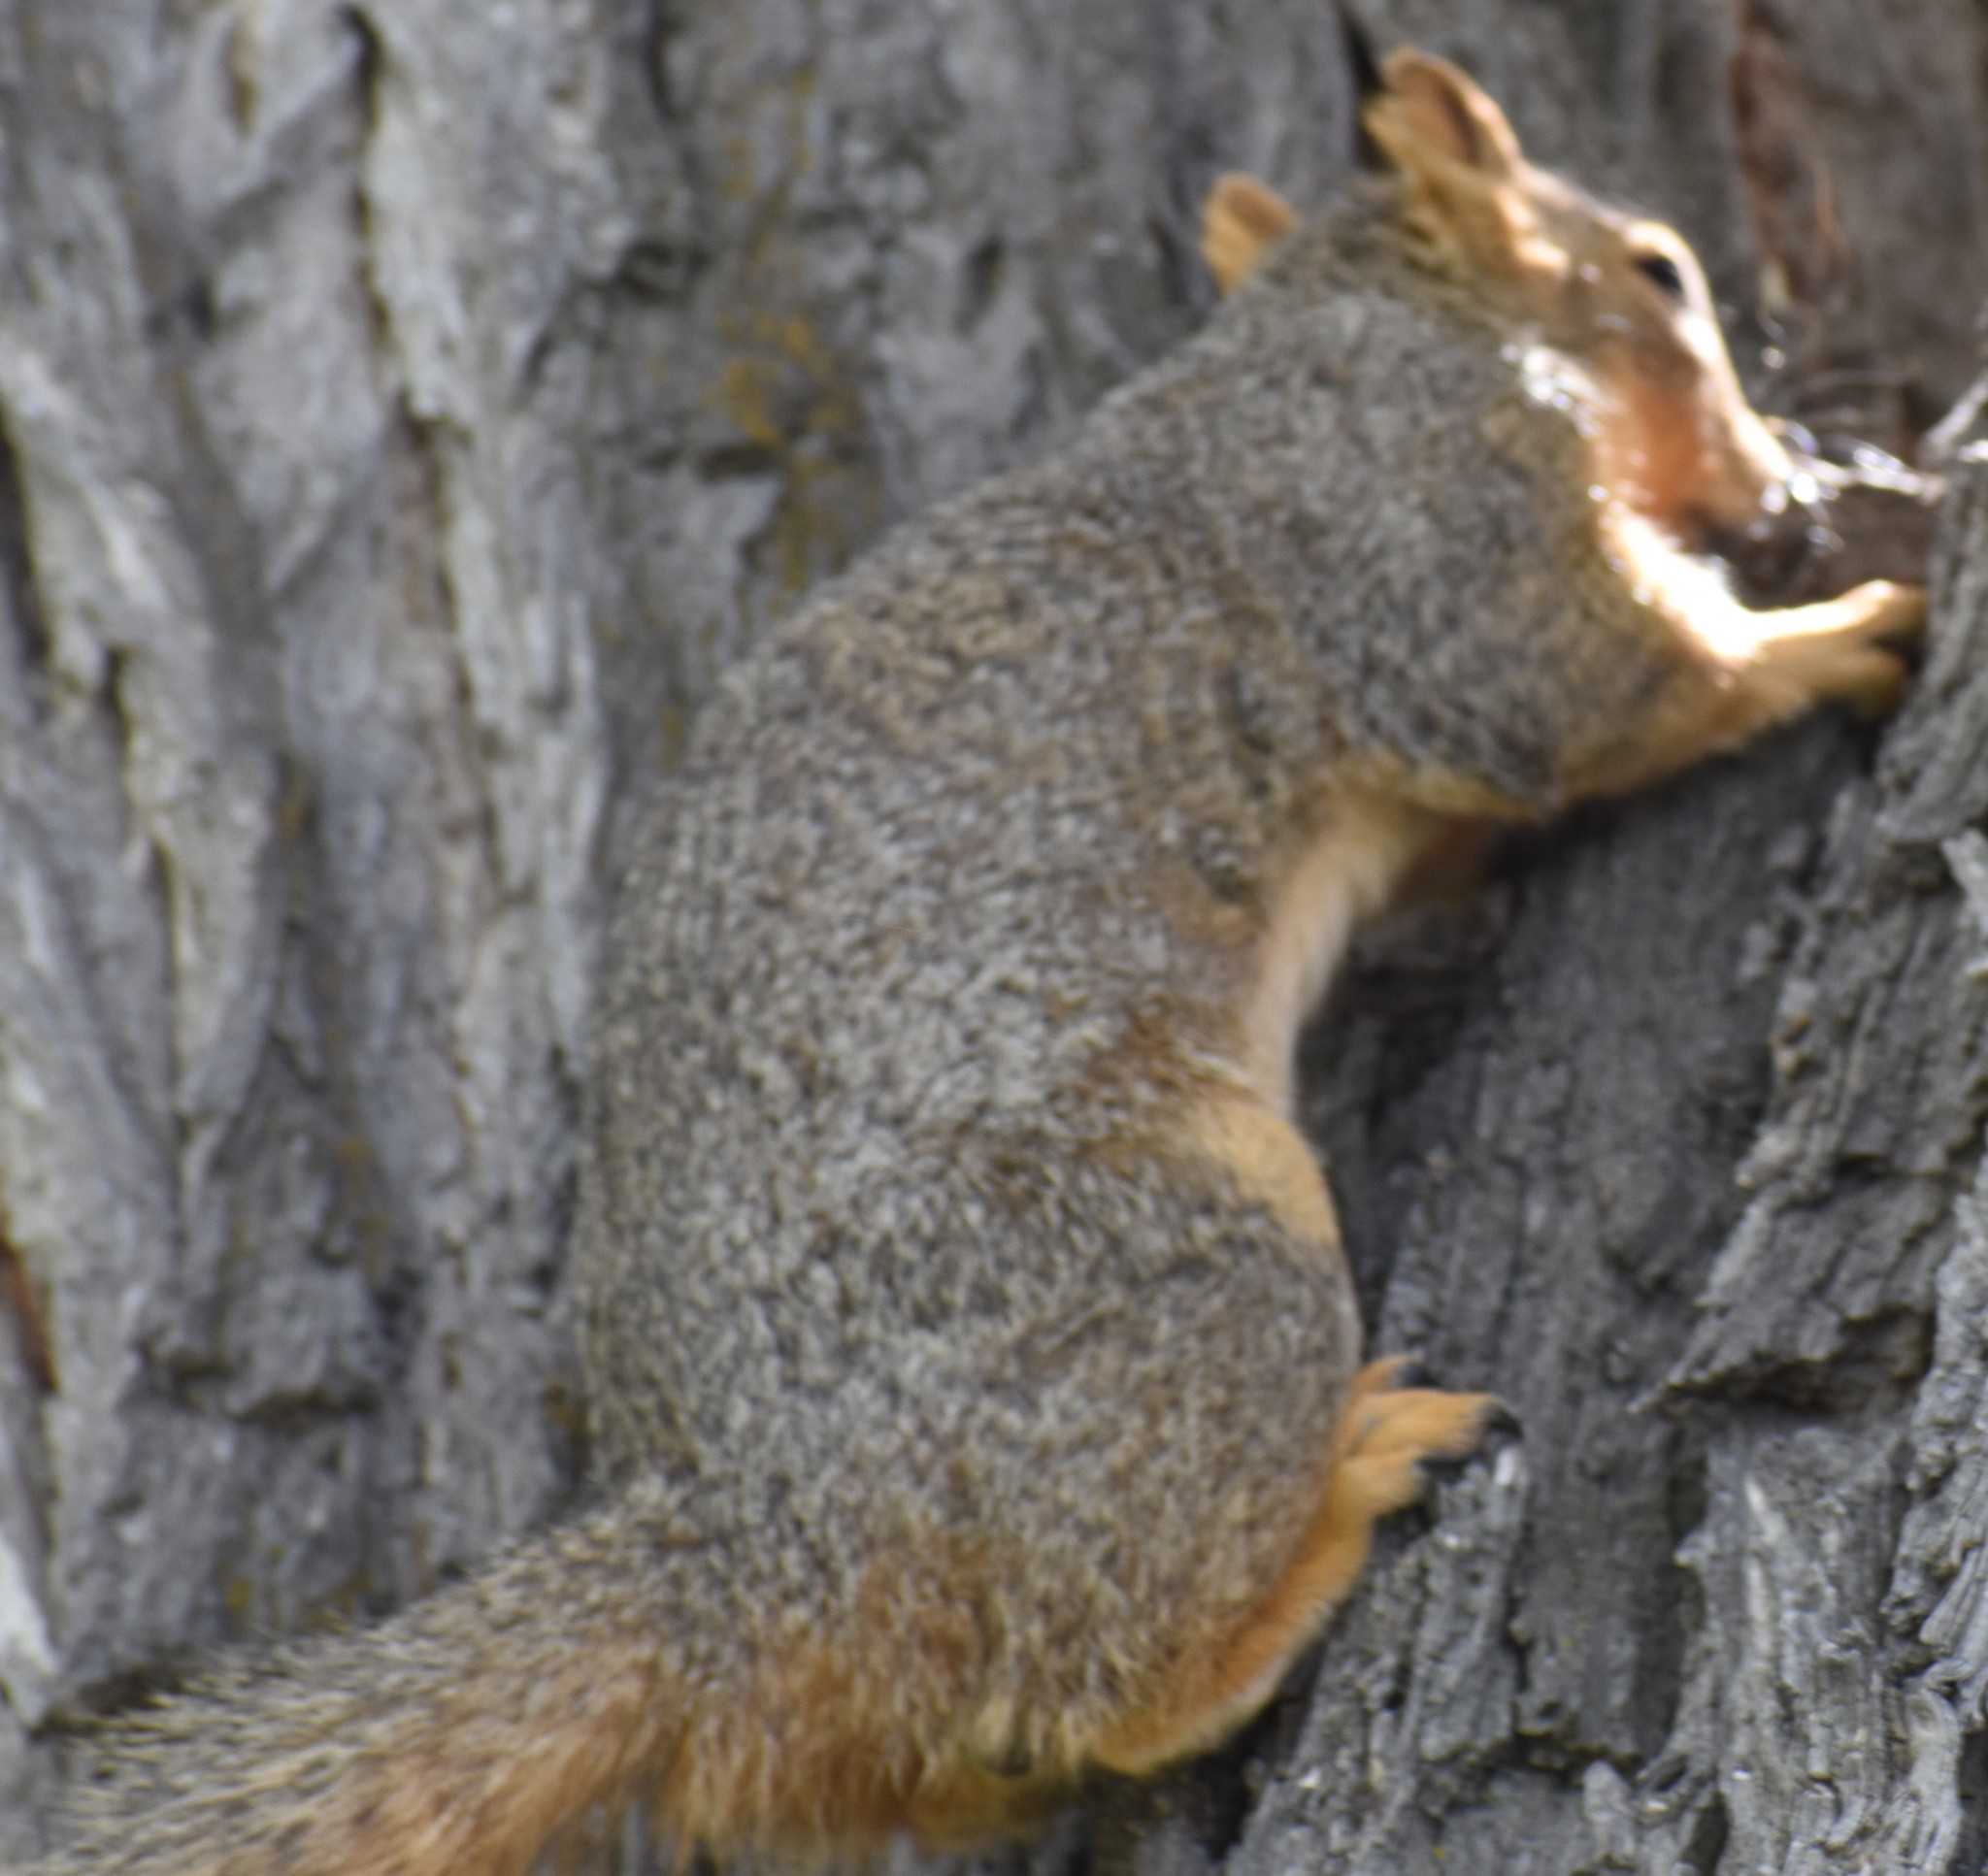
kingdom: Animalia
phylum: Chordata
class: Mammalia
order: Rodentia
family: Sciuridae
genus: Sciurus
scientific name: Sciurus niger
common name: Fox squirrel
